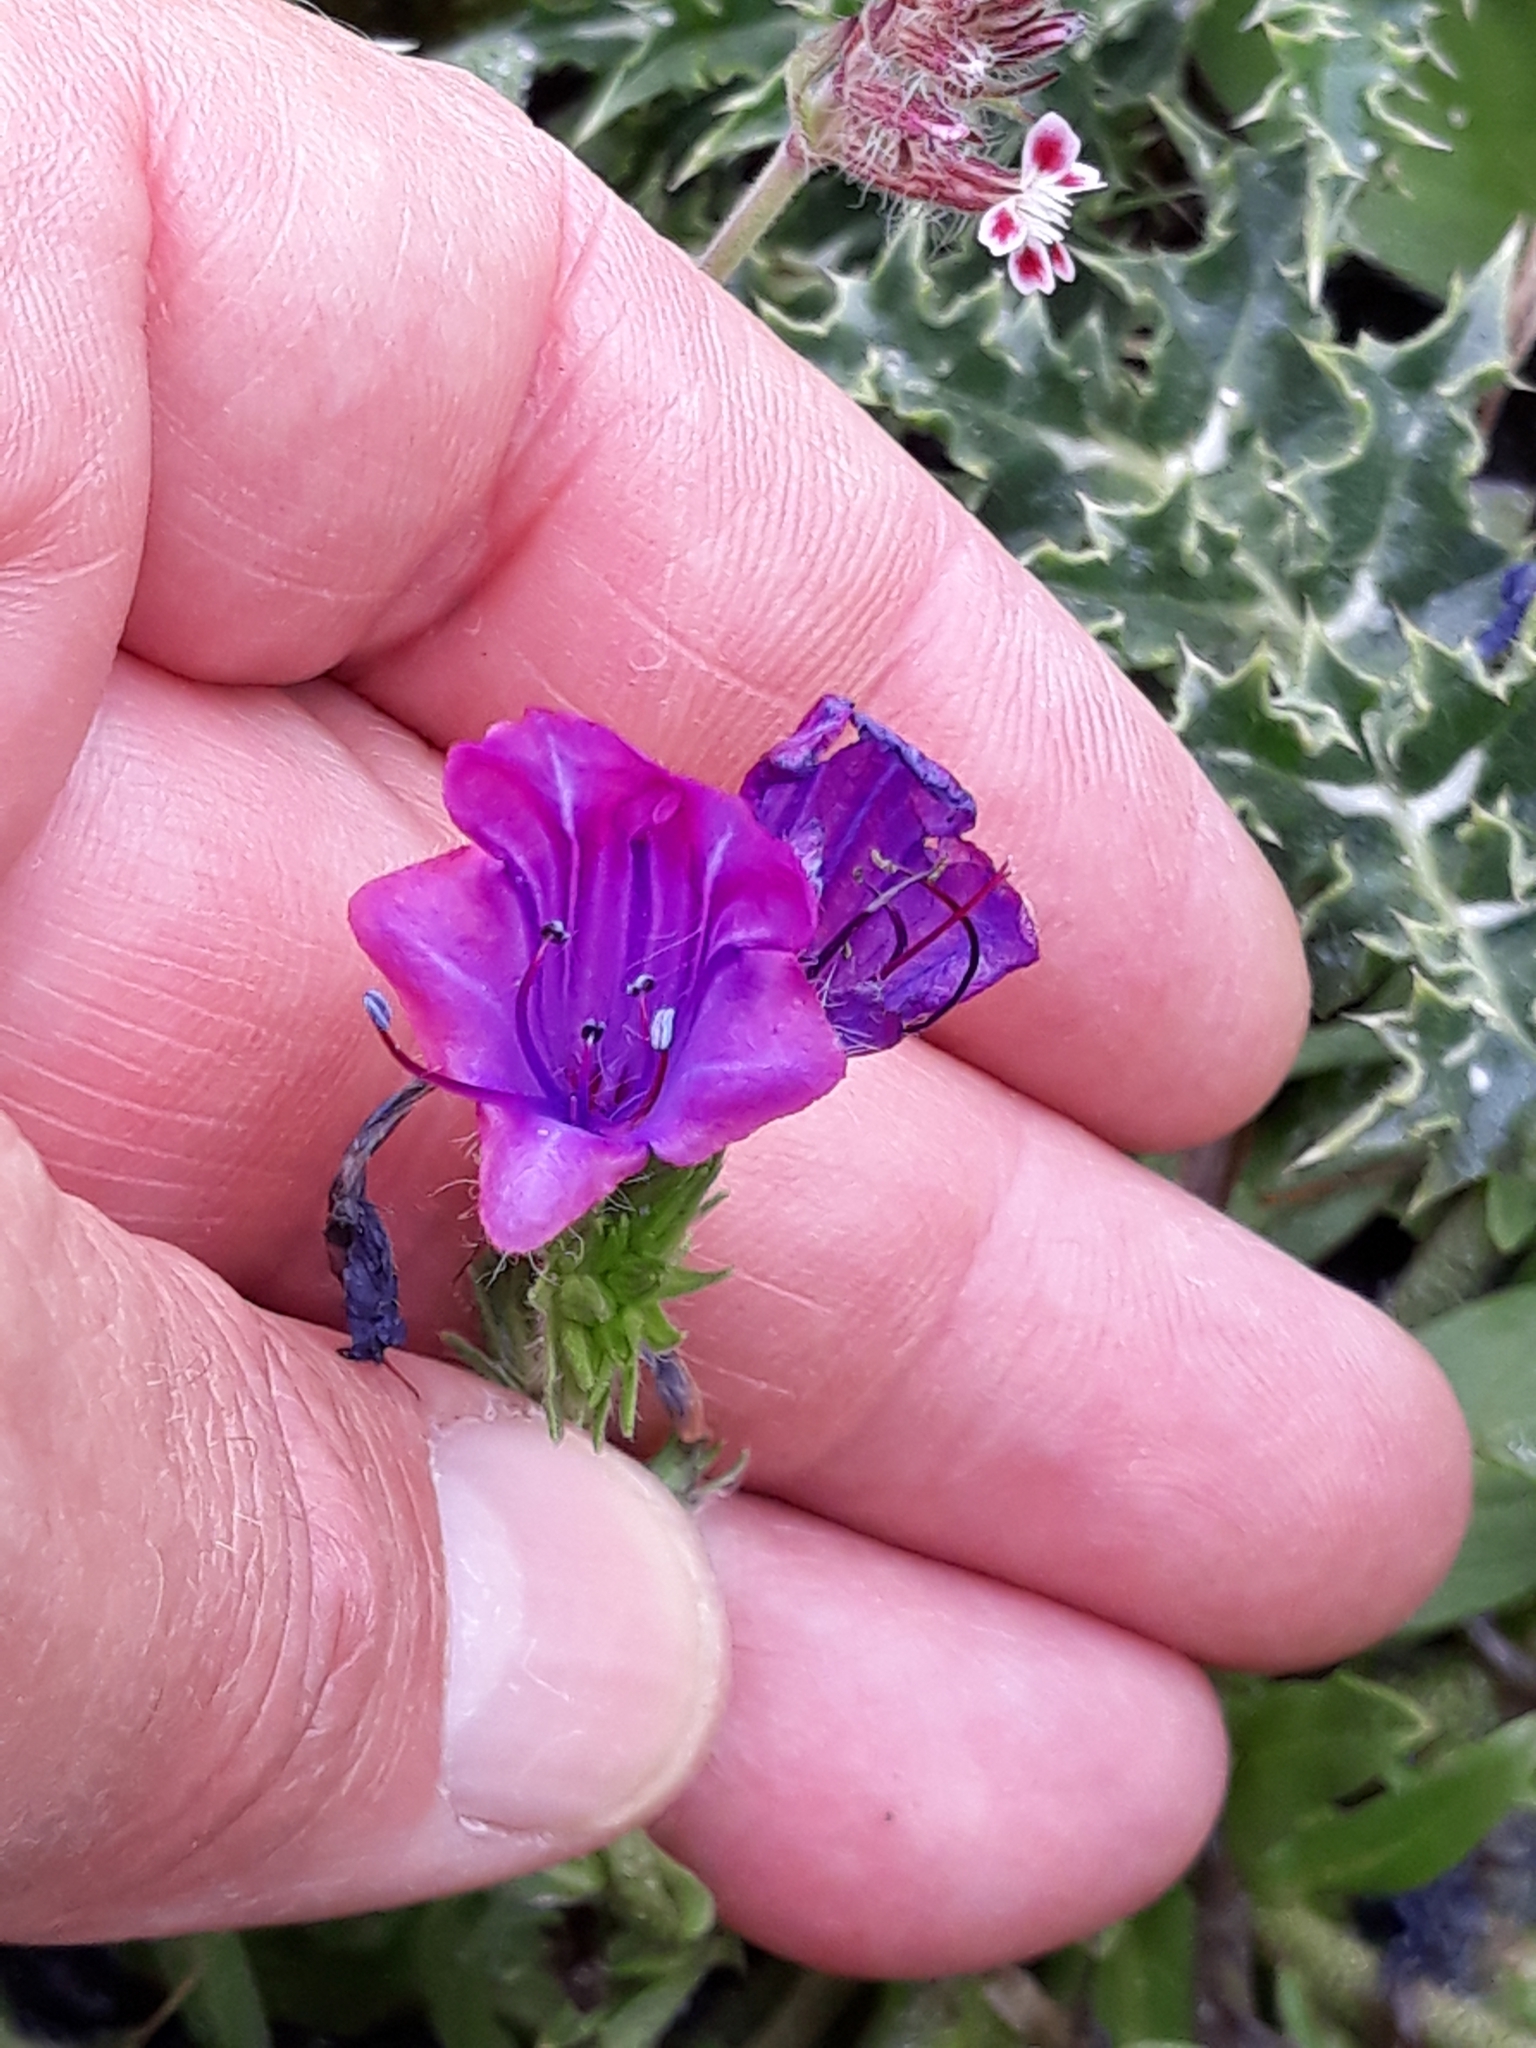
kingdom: Plantae
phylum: Tracheophyta
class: Magnoliopsida
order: Boraginales
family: Boraginaceae
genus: Echium
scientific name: Echium plantagineum
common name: Purple viper's-bugloss
